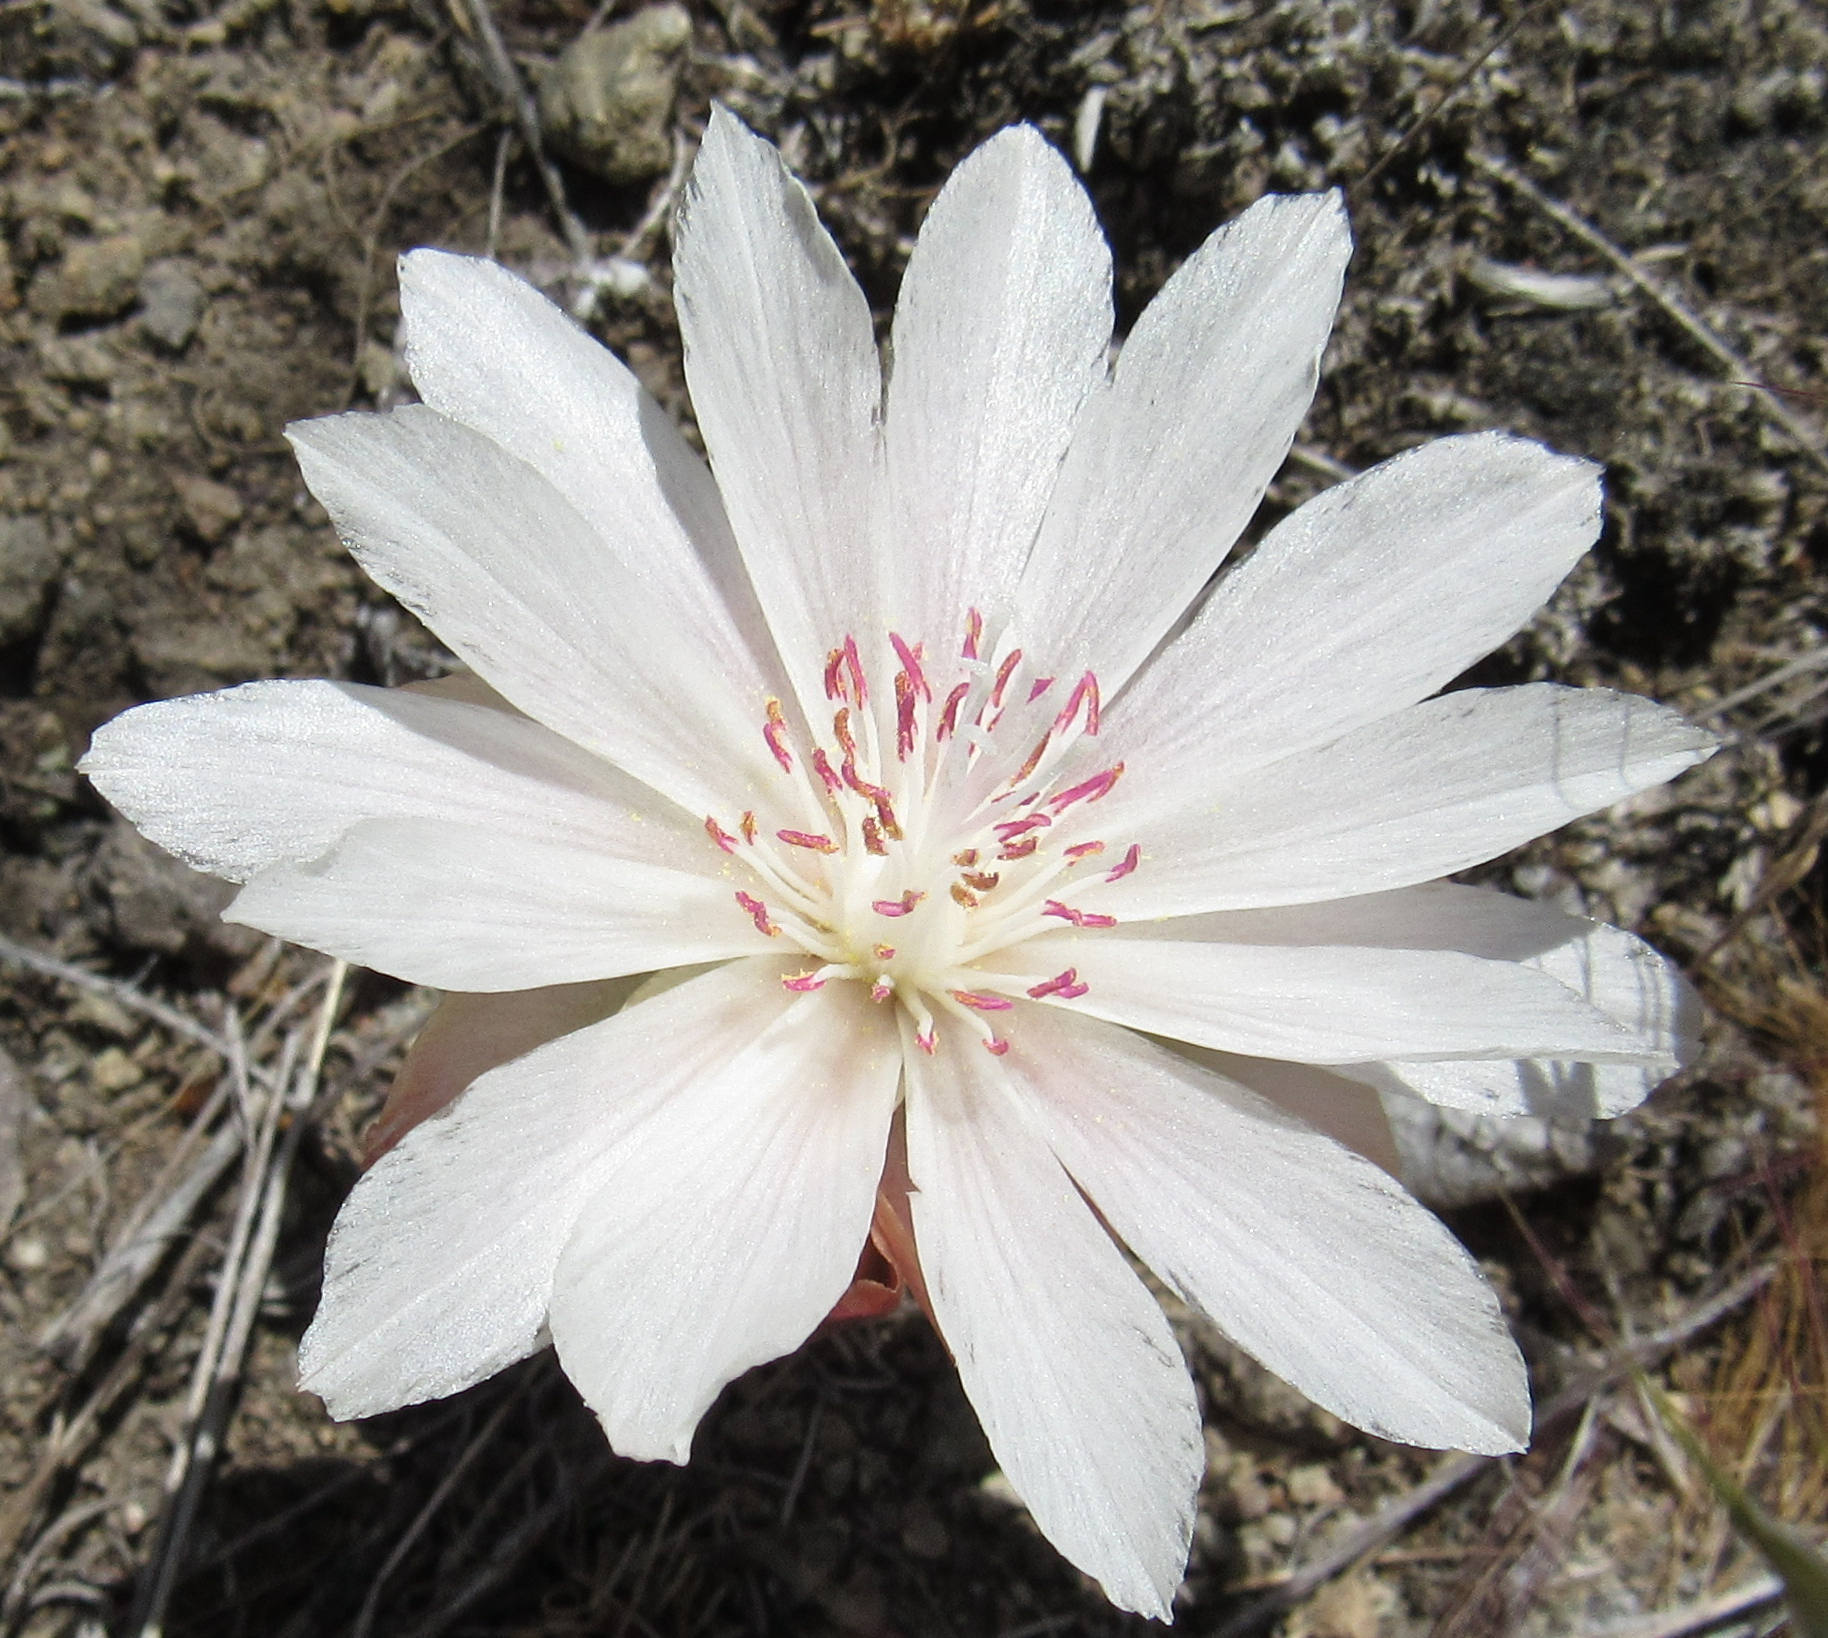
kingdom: Plantae
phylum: Tracheophyta
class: Magnoliopsida
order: Caryophyllales
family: Montiaceae
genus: Lewisia
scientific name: Lewisia rediviva
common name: Bitter-root
